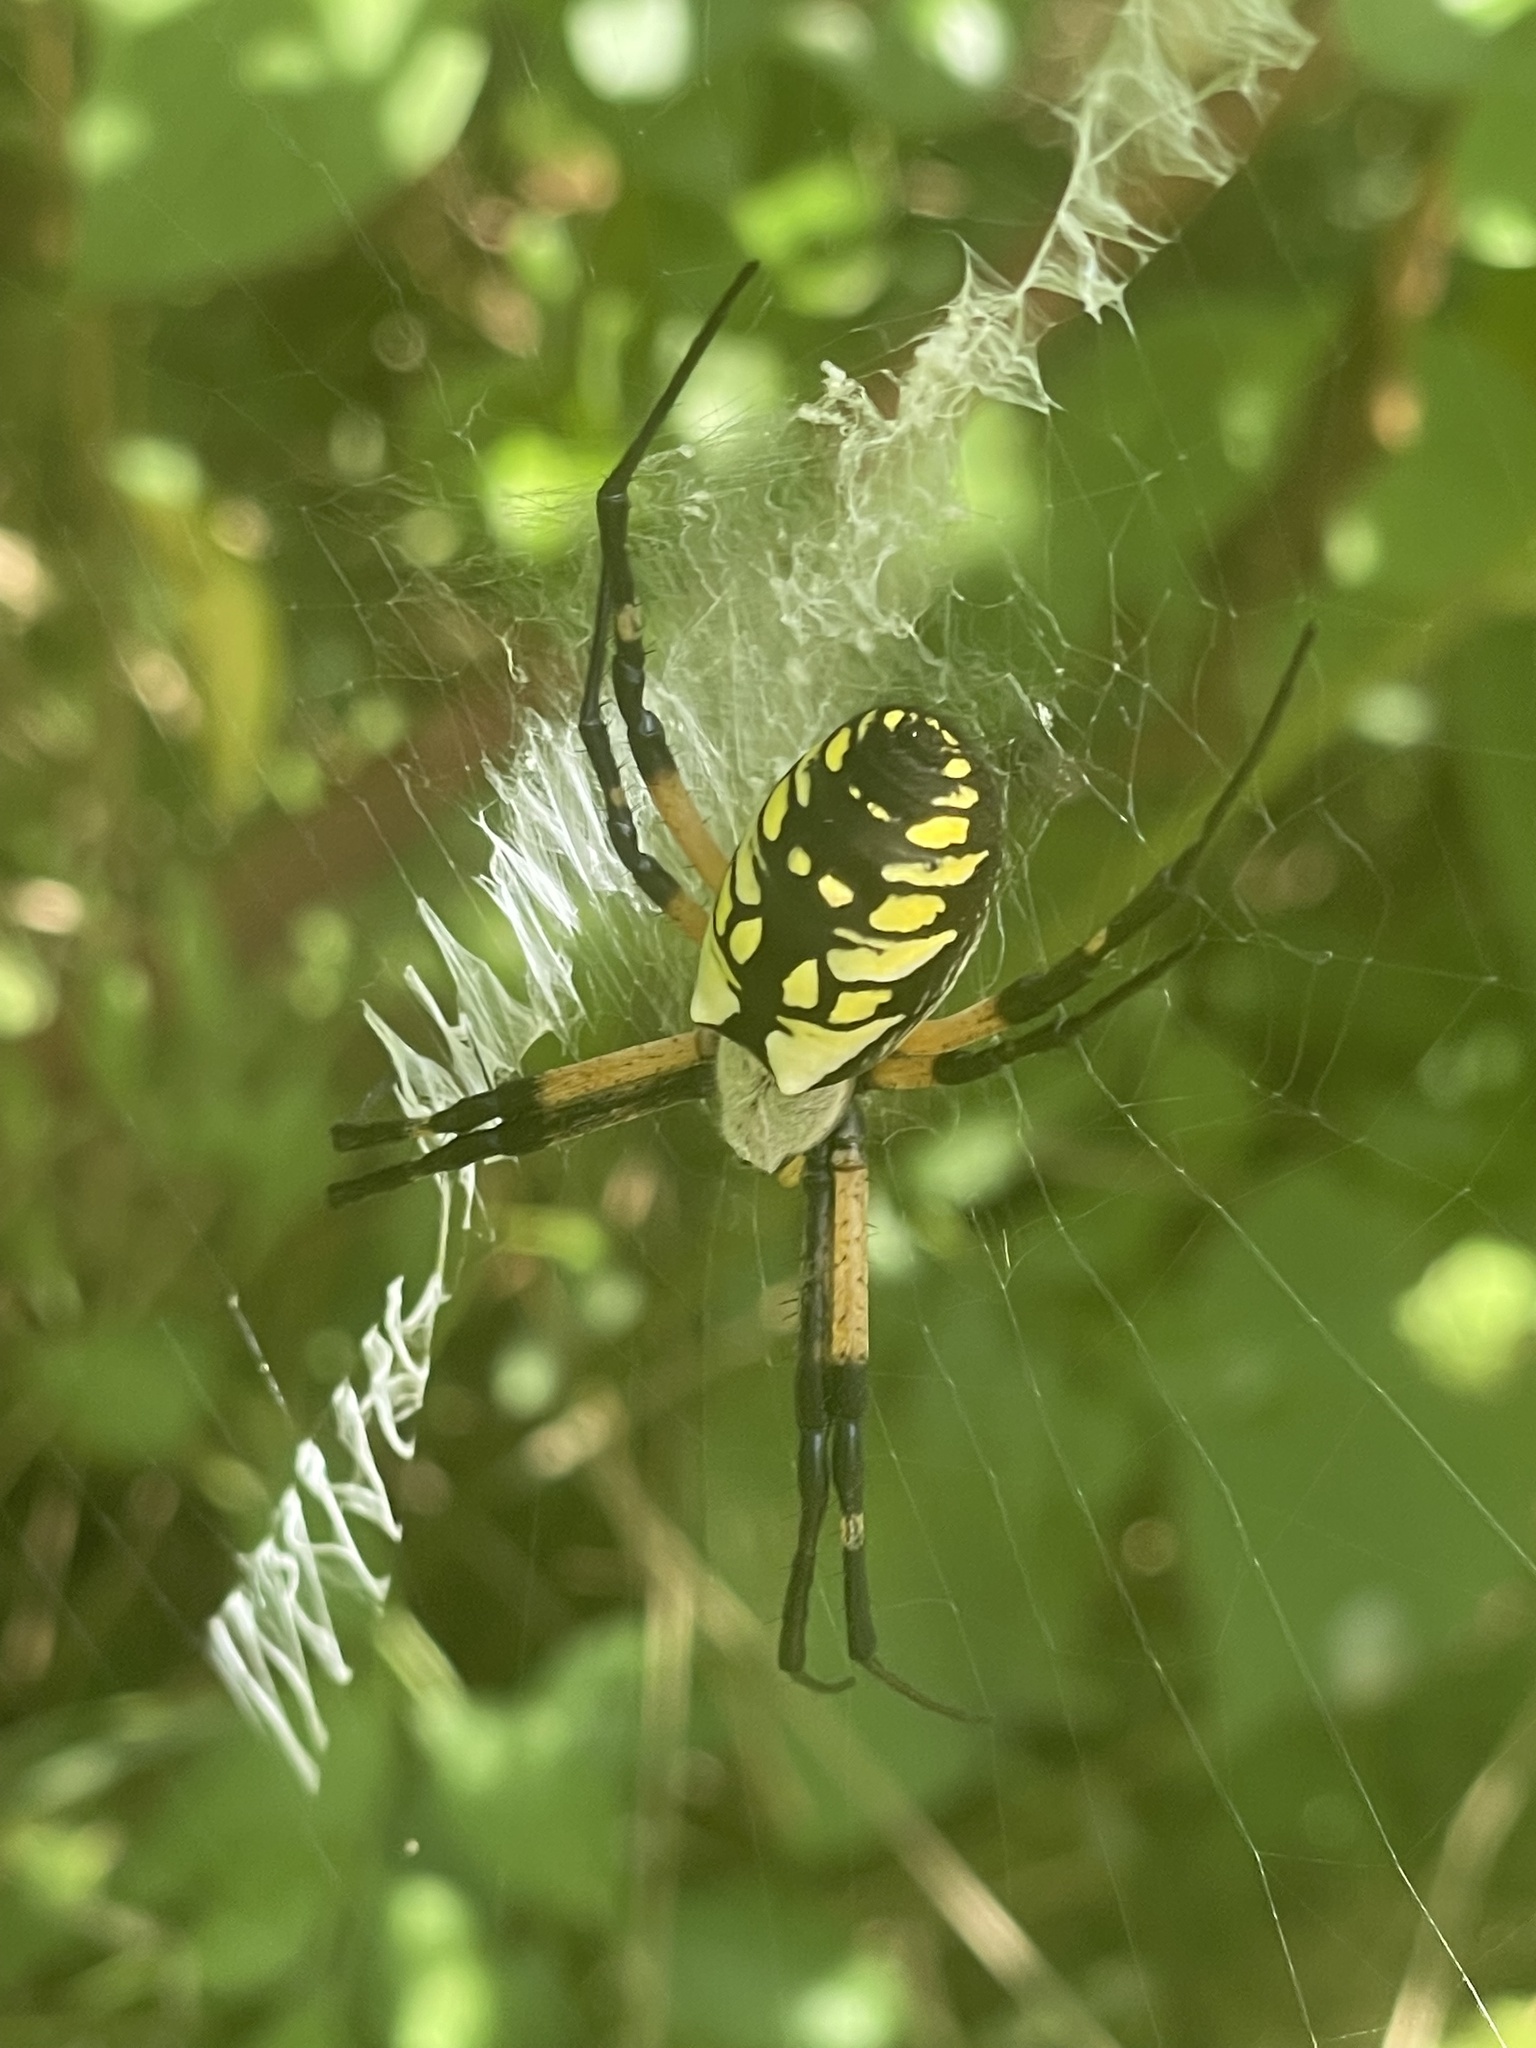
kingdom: Animalia
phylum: Arthropoda
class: Arachnida
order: Araneae
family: Araneidae
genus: Argiope
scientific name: Argiope aurantia
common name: Orb weavers
